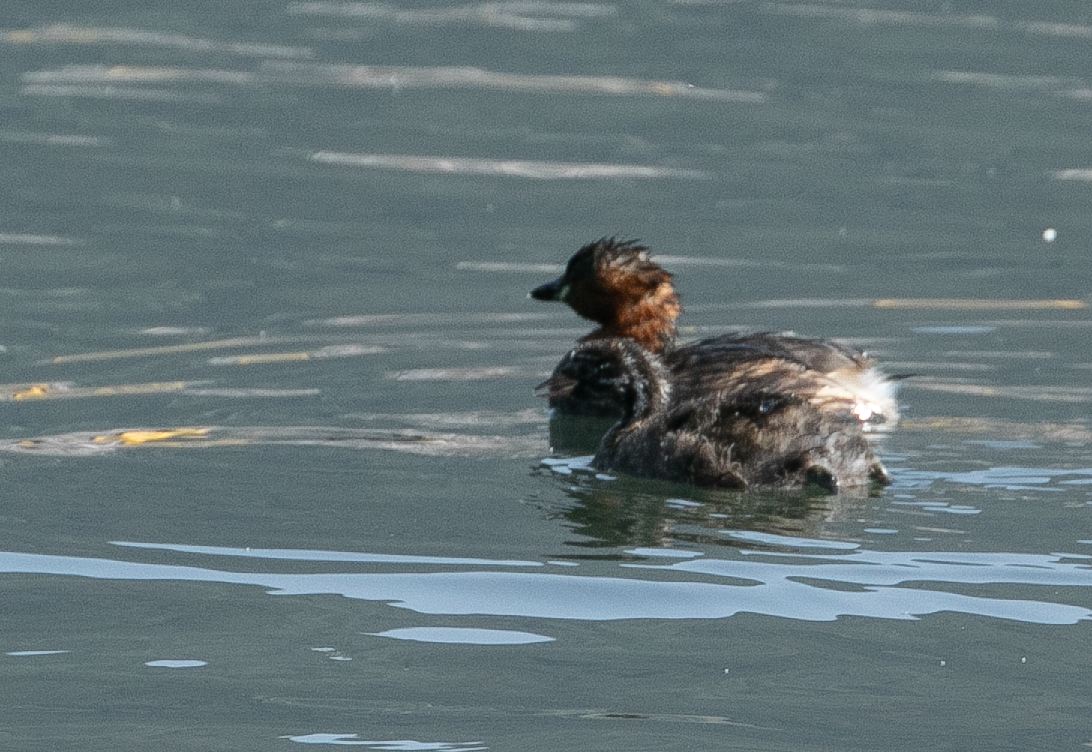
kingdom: Animalia
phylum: Chordata
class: Aves
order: Podicipediformes
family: Podicipedidae
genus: Tachybaptus
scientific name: Tachybaptus ruficollis
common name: Little grebe
